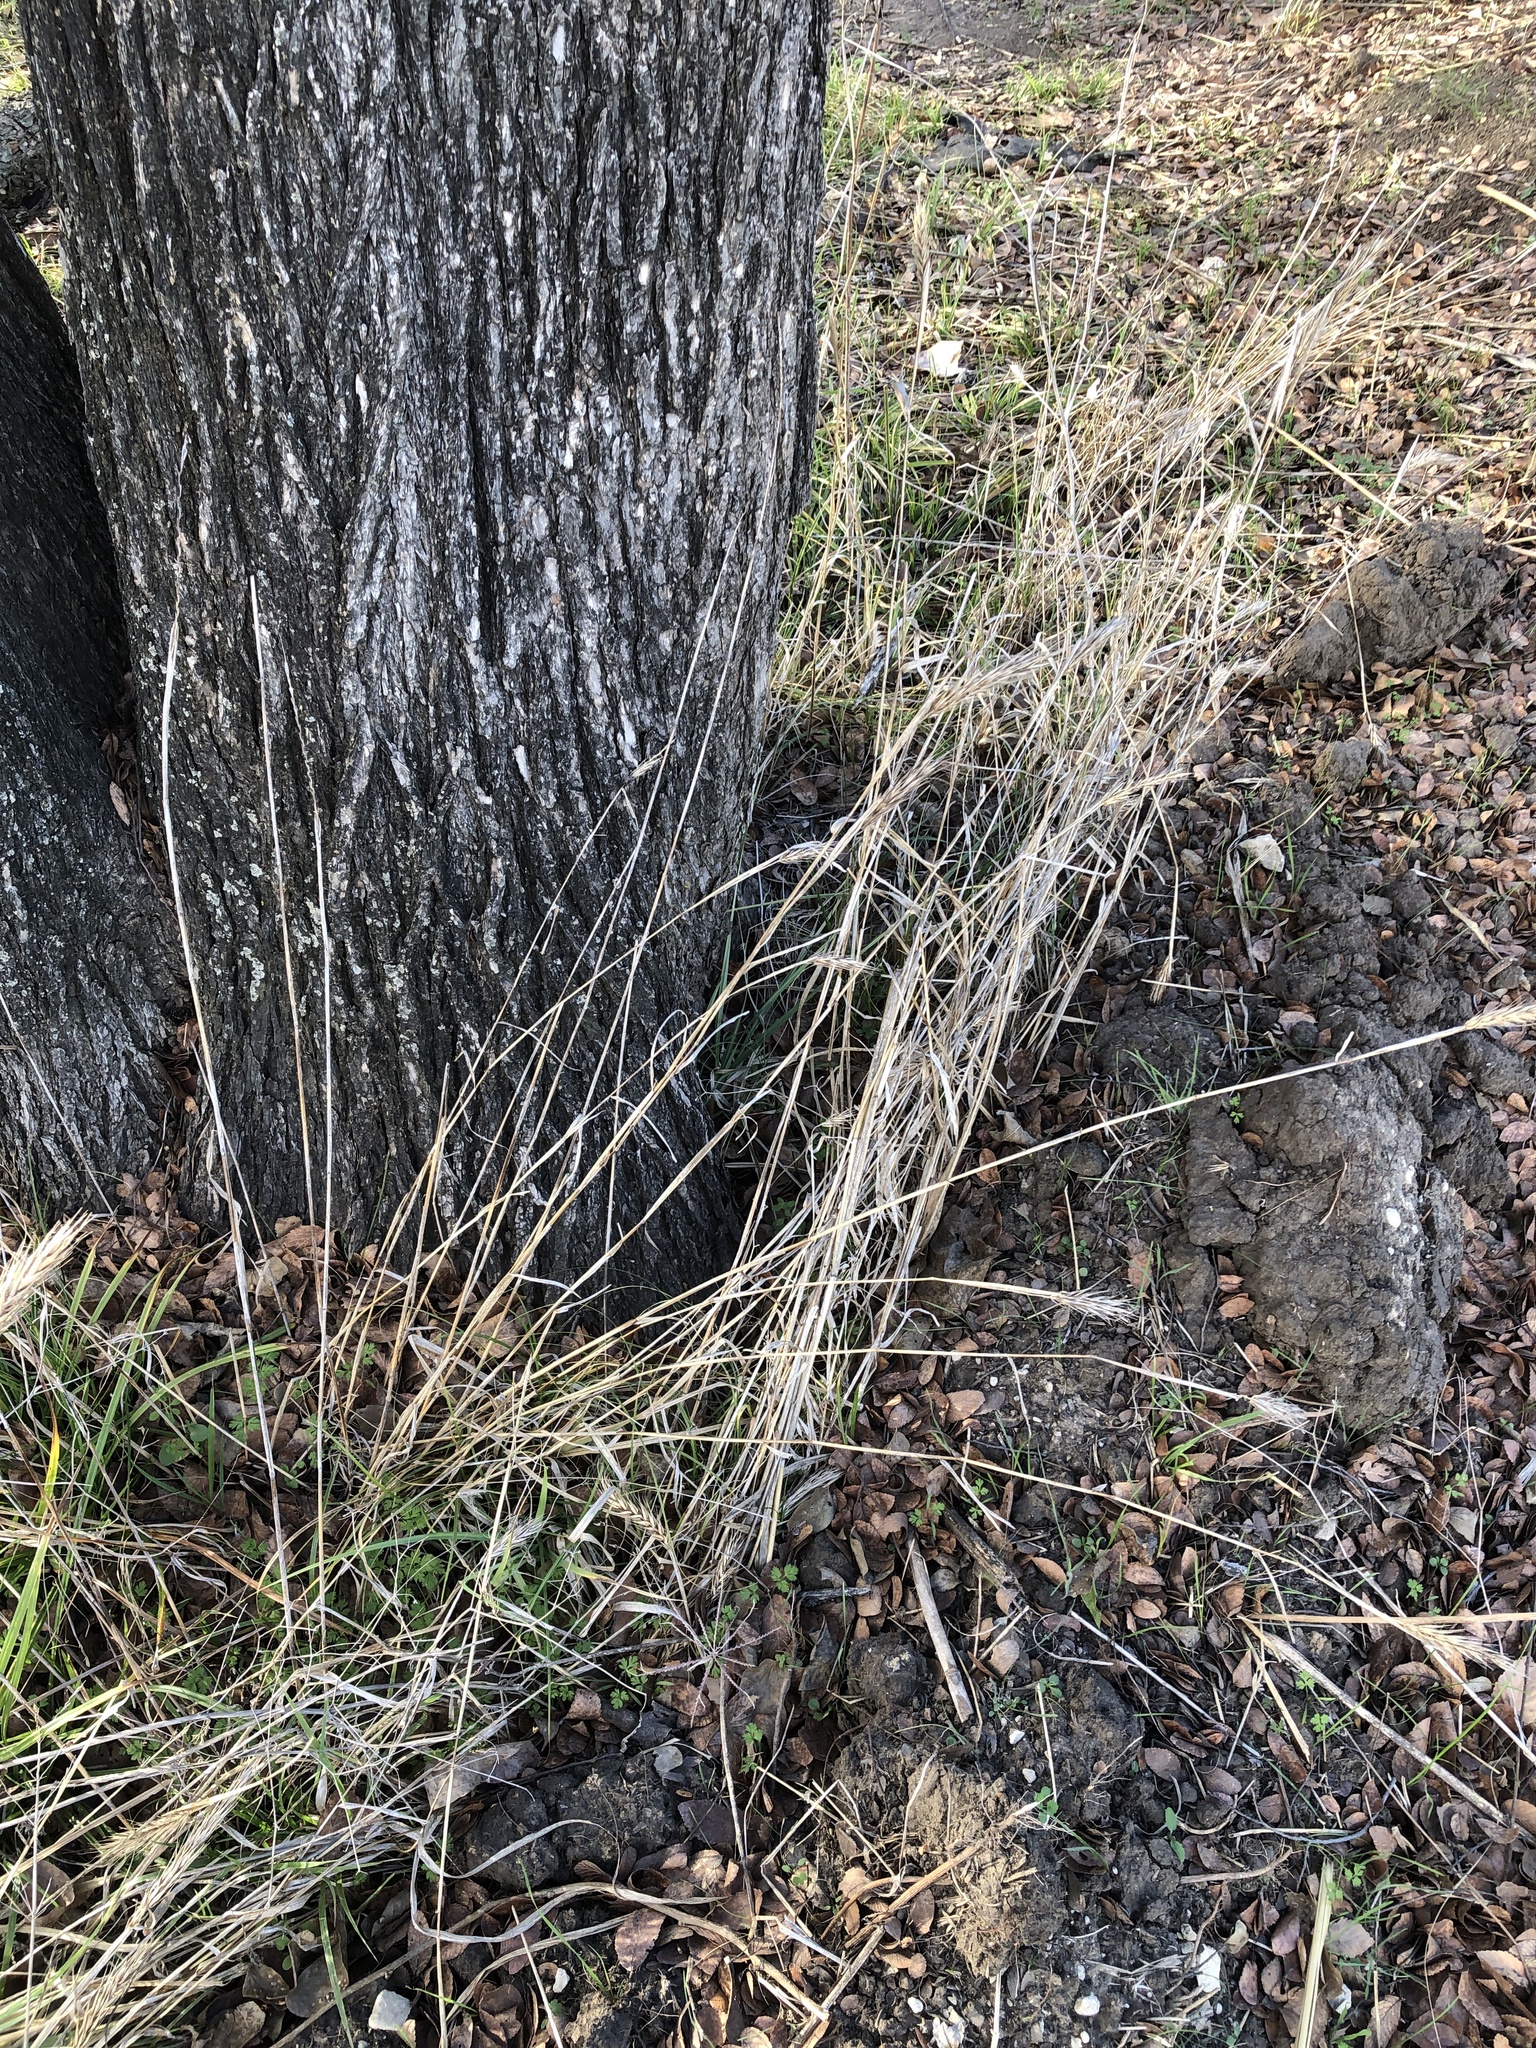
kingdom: Plantae
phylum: Tracheophyta
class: Liliopsida
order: Poales
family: Poaceae
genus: Elymus
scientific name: Elymus virginicus
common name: Common eastern wildrye
